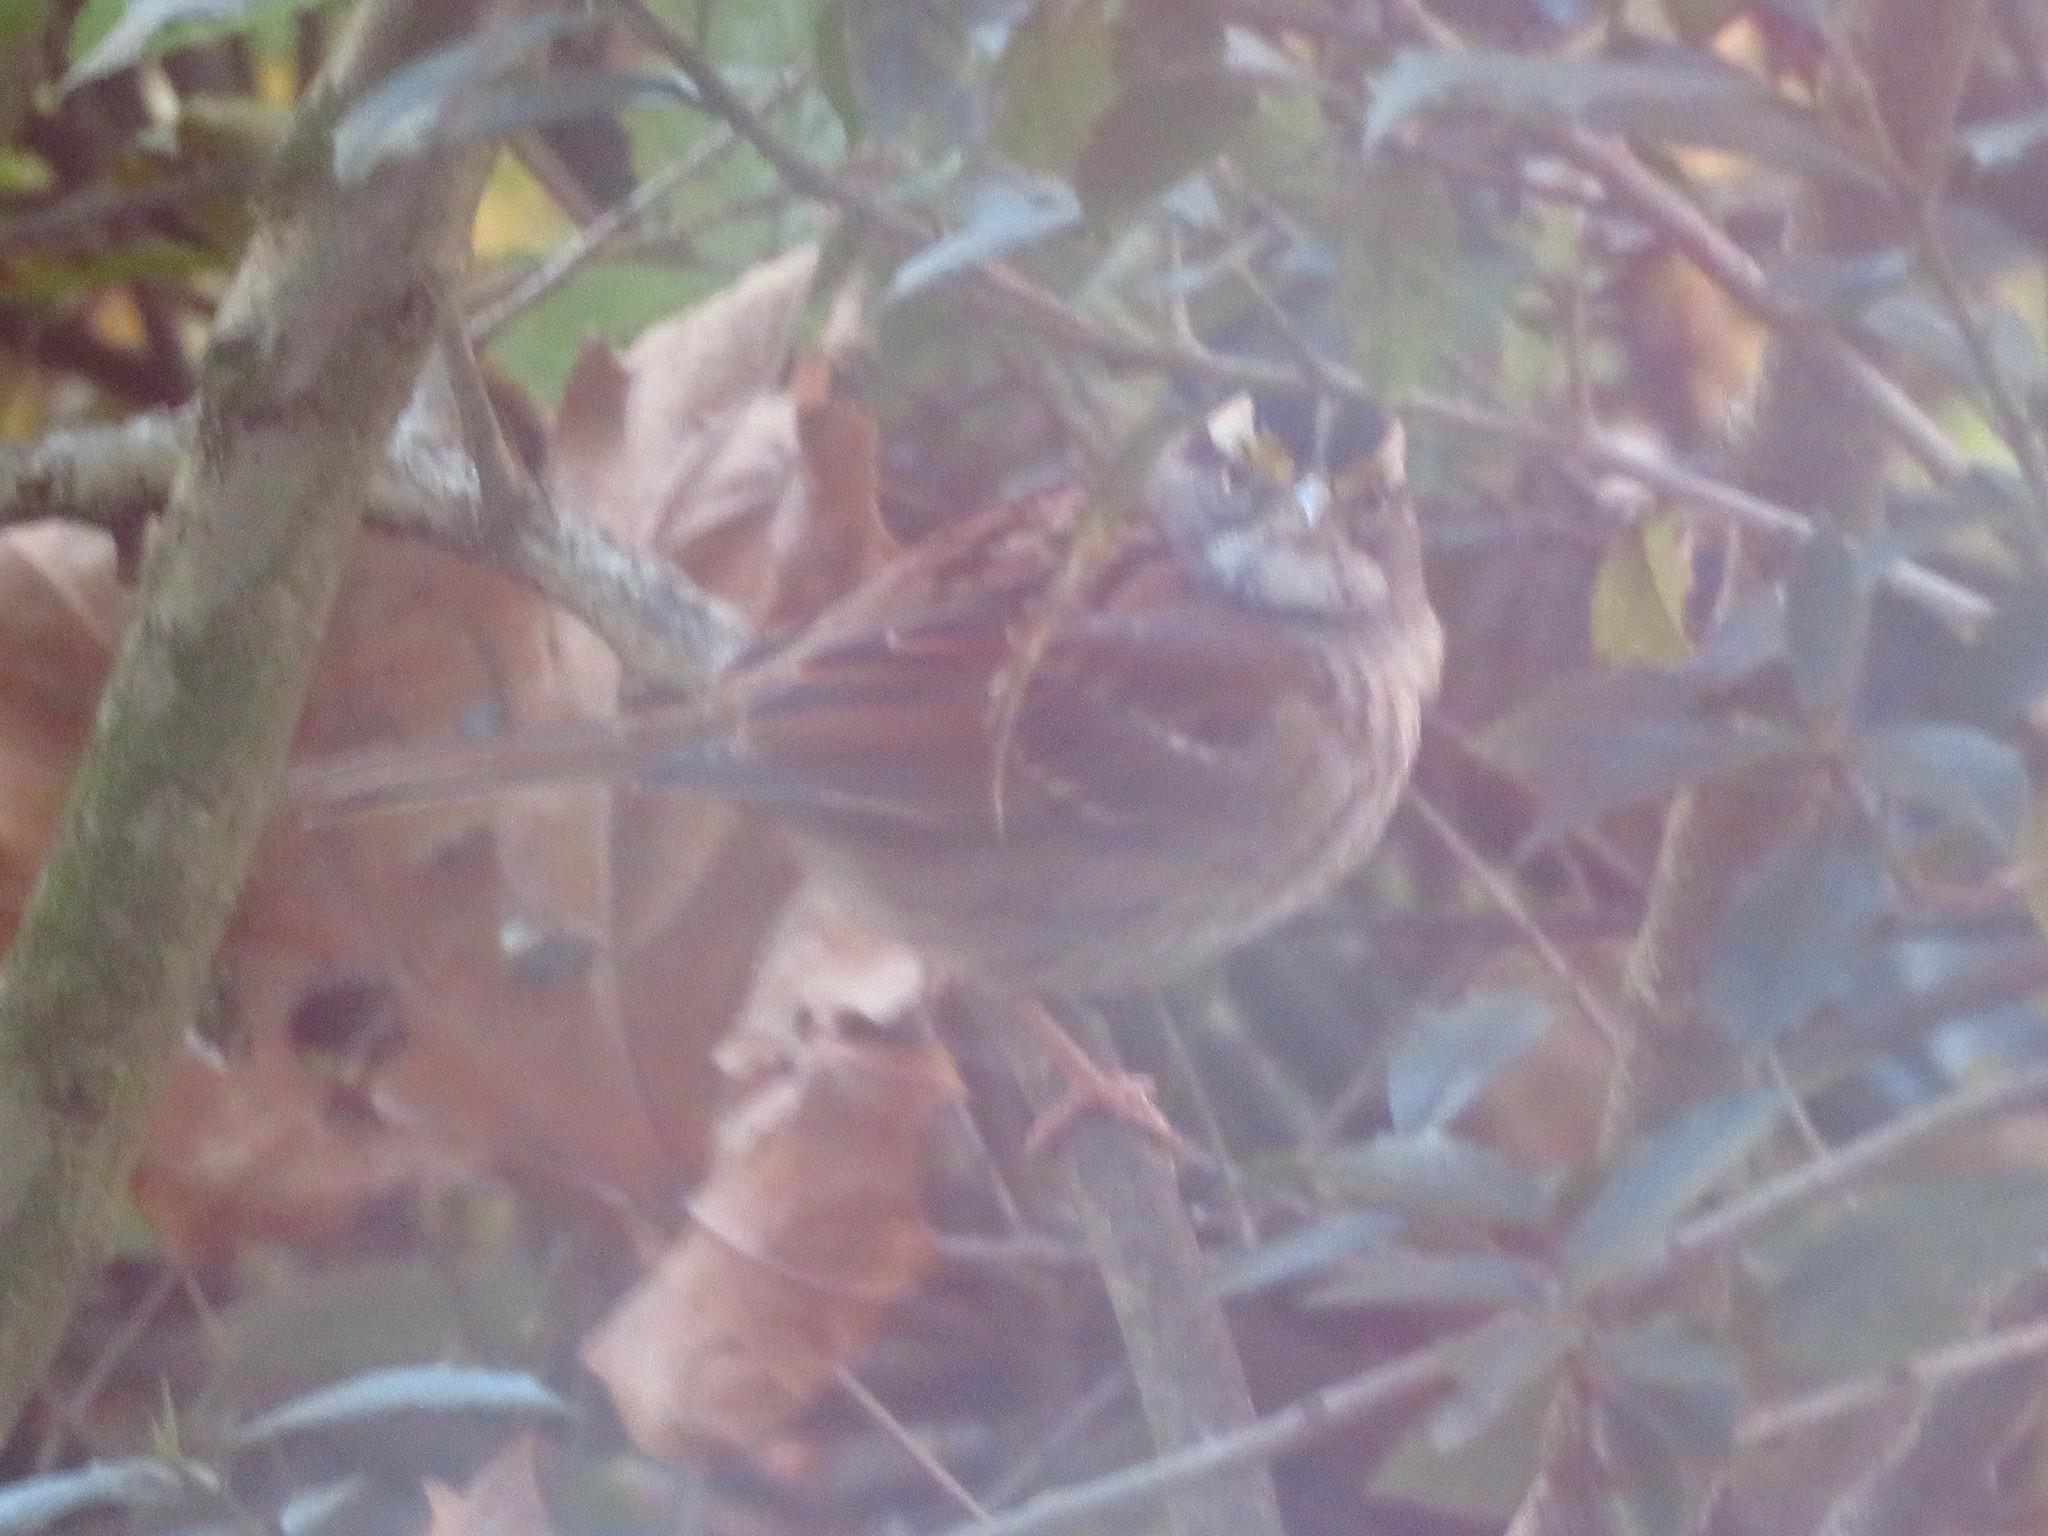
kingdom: Animalia
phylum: Chordata
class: Aves
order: Passeriformes
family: Passerellidae
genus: Zonotrichia
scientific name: Zonotrichia albicollis
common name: White-throated sparrow
